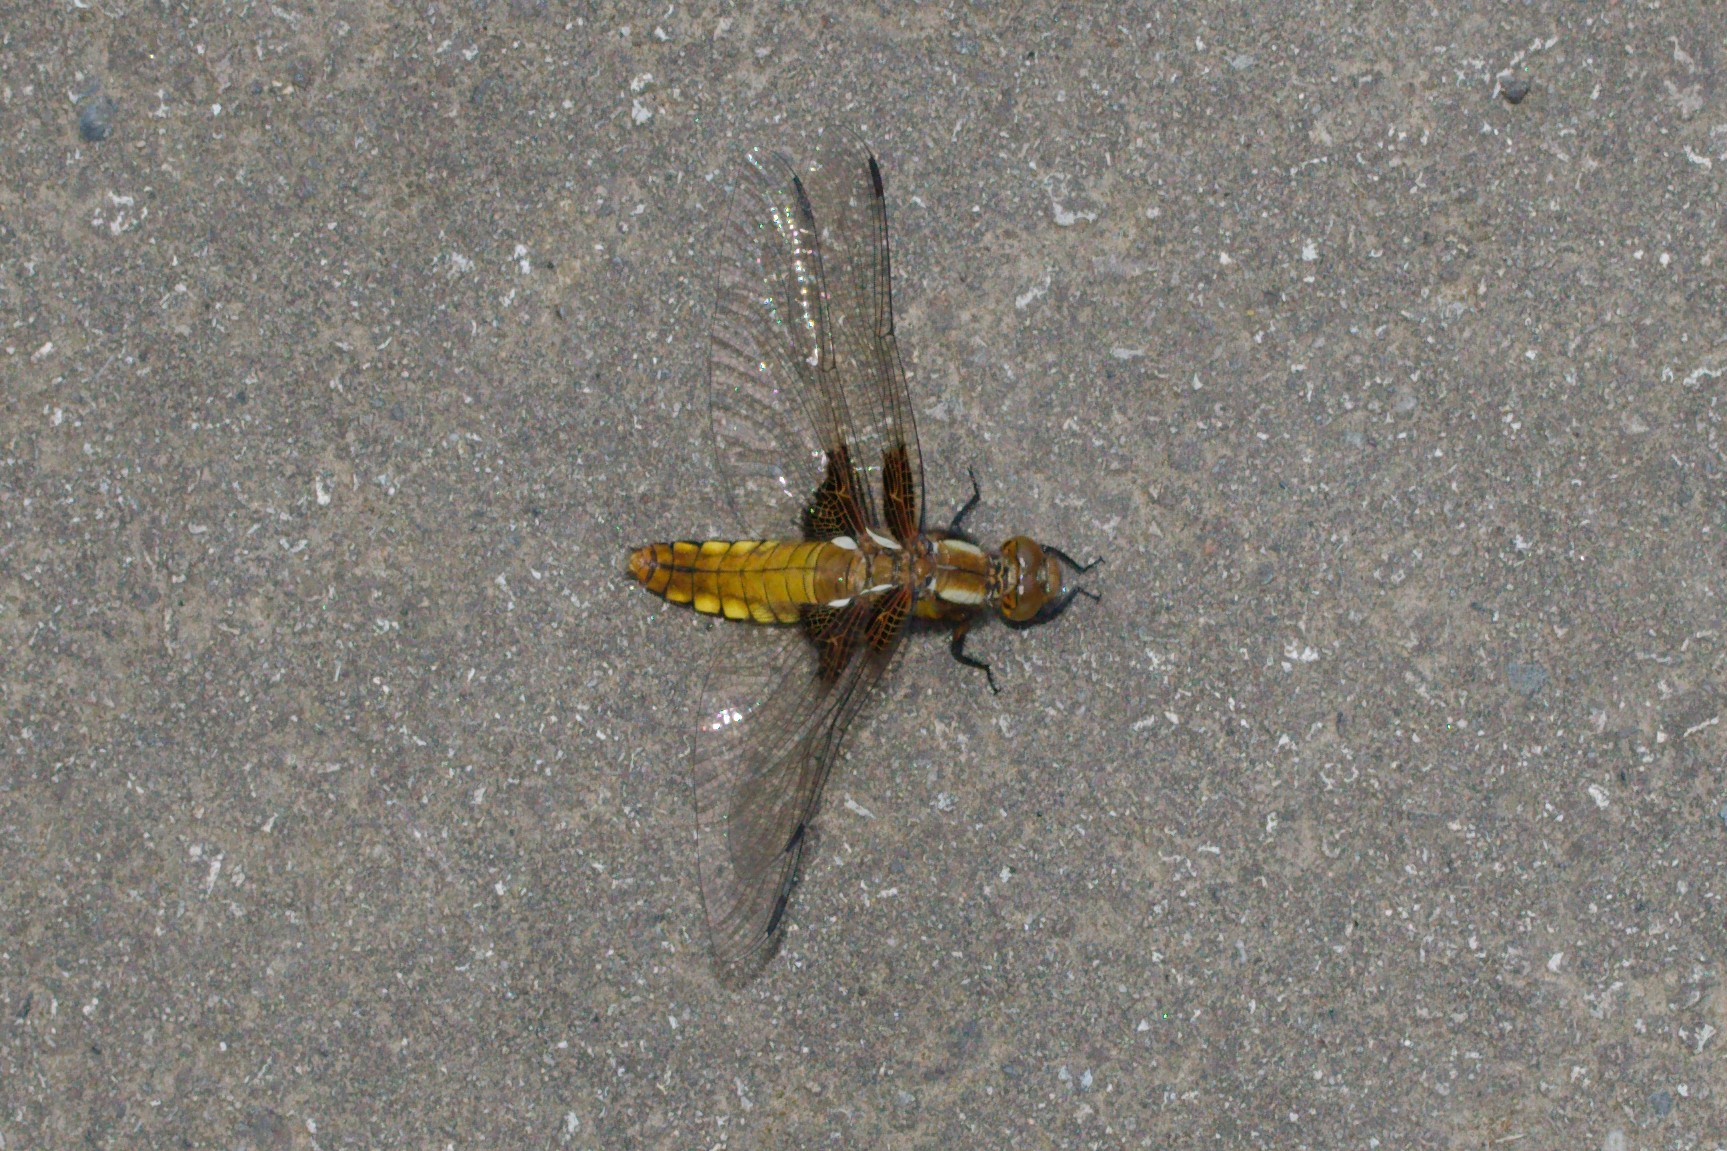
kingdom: Animalia
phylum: Arthropoda
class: Insecta
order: Odonata
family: Libellulidae
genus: Libellula
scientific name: Libellula depressa
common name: Broad-bodied chaser
